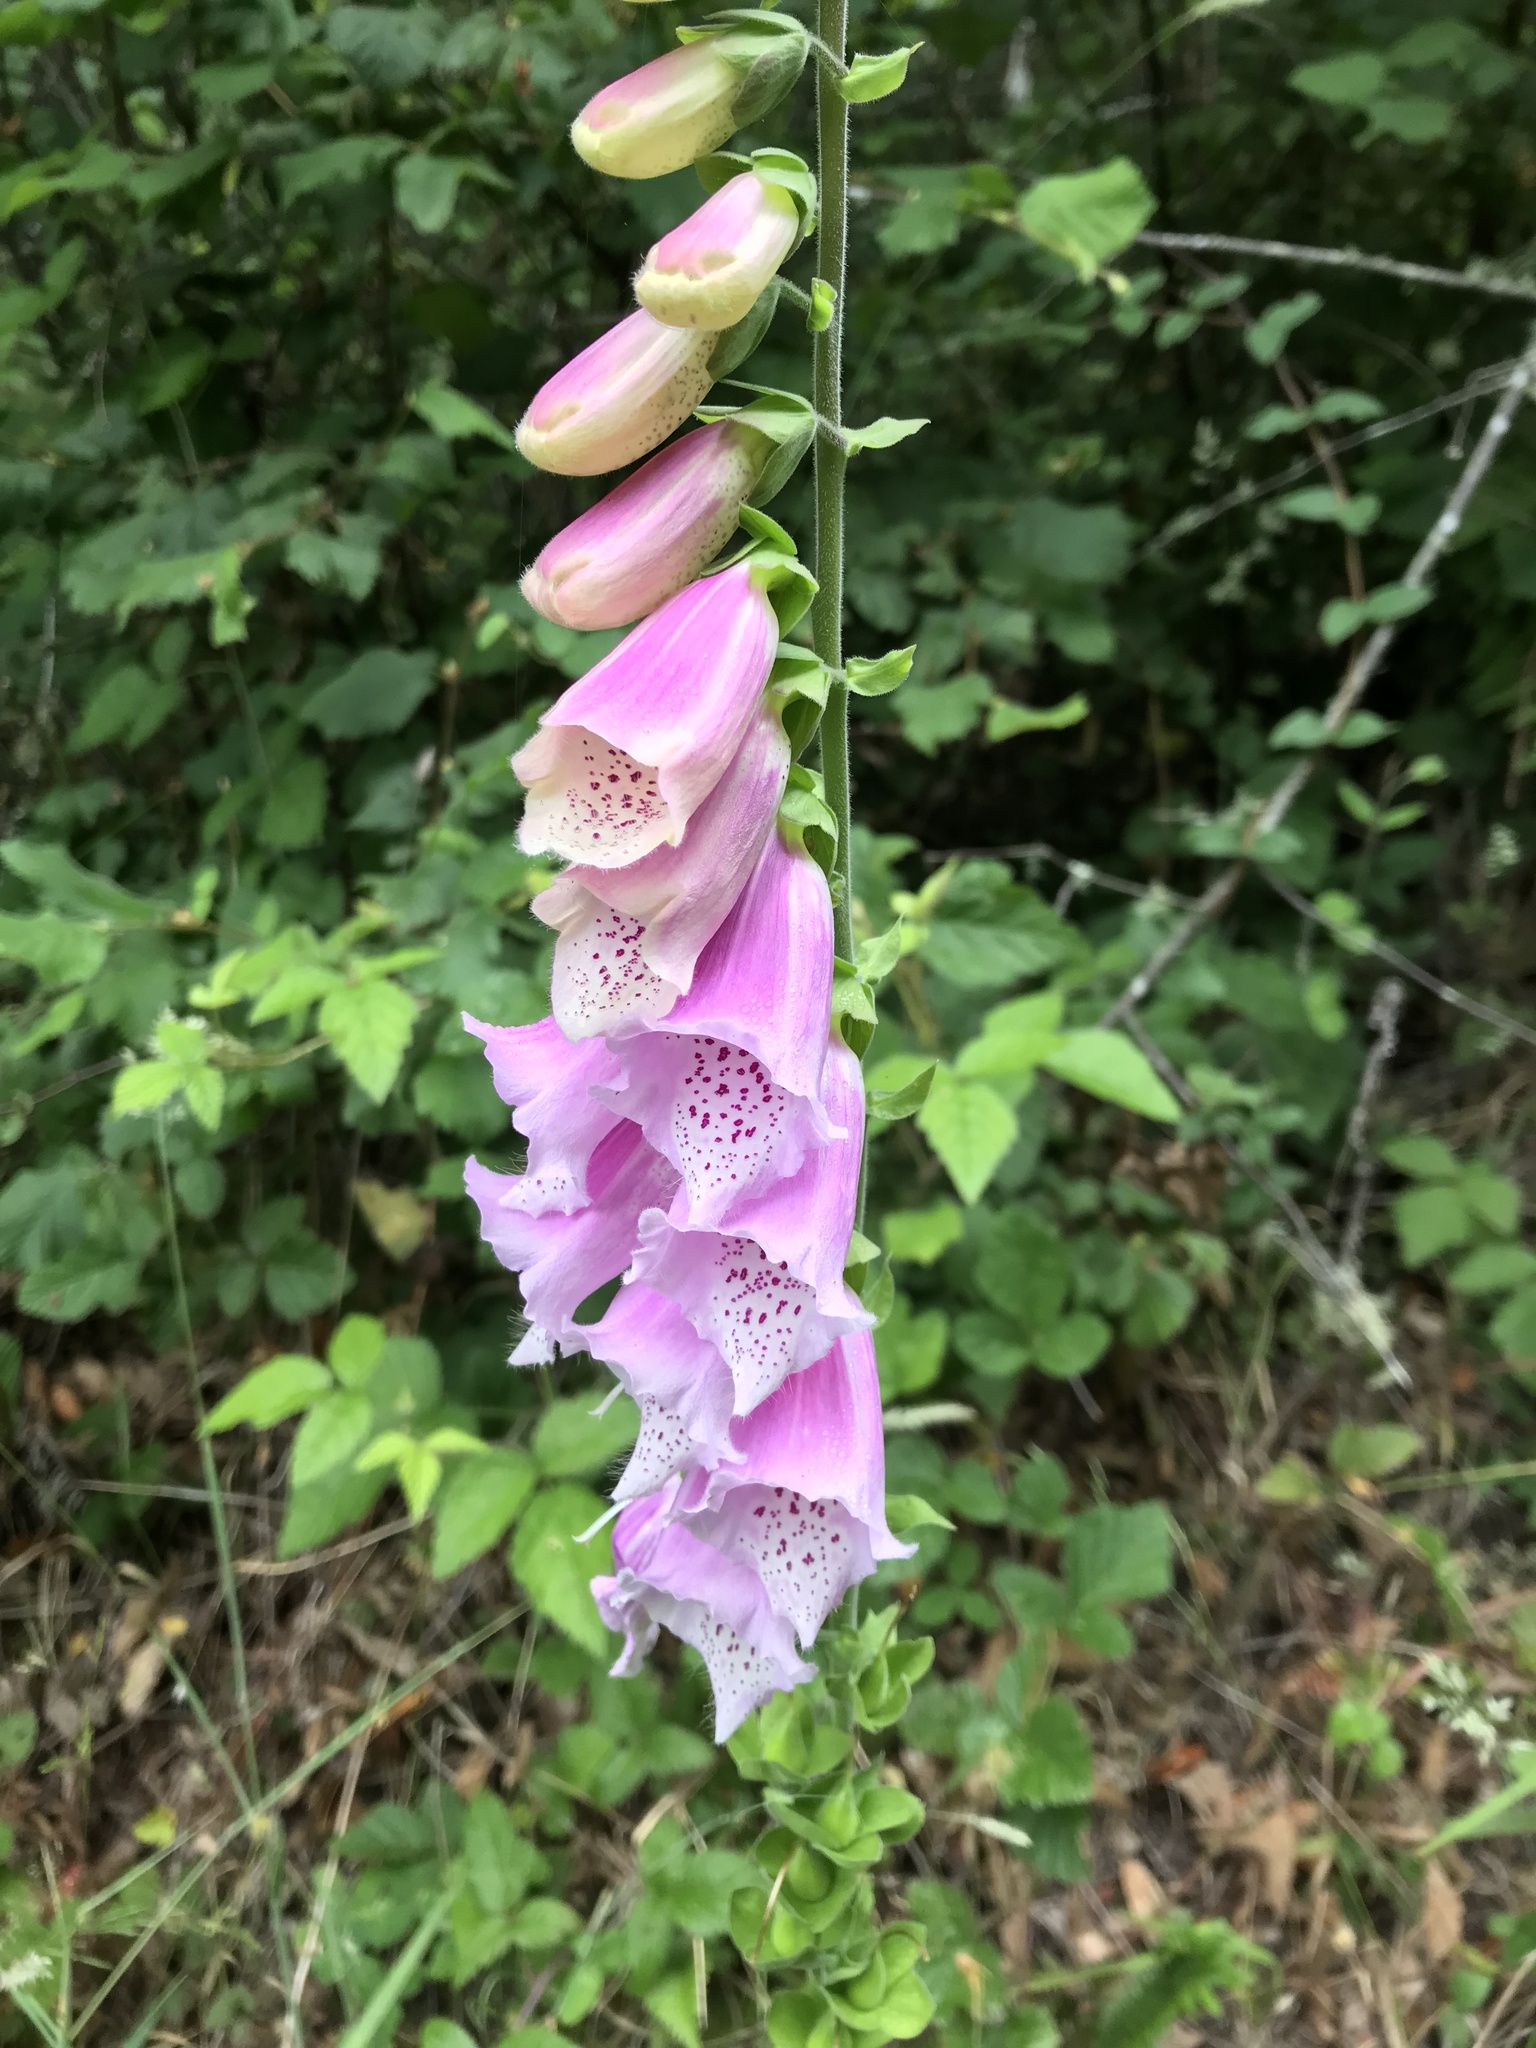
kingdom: Plantae
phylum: Tracheophyta
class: Magnoliopsida
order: Lamiales
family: Plantaginaceae
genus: Digitalis
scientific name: Digitalis purpurea
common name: Foxglove
